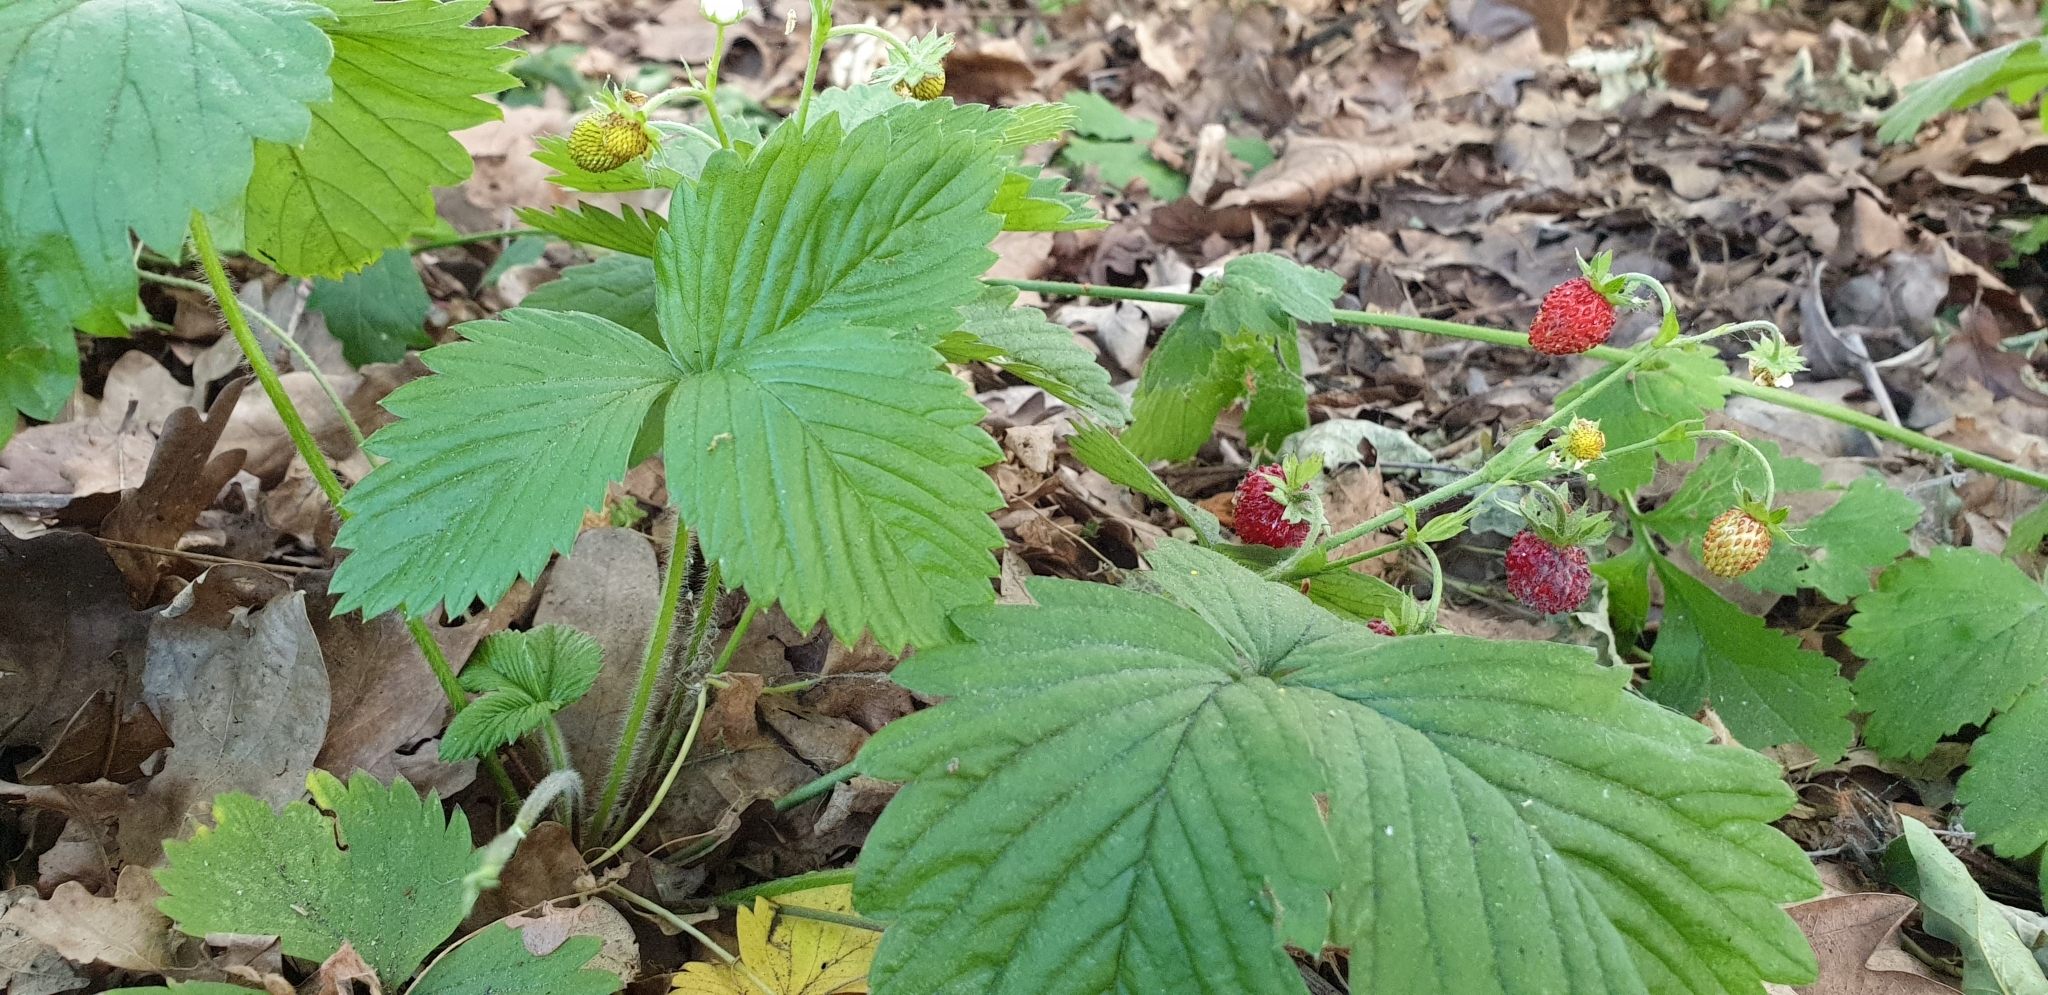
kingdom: Plantae
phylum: Tracheophyta
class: Magnoliopsida
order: Rosales
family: Rosaceae
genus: Fragaria
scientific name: Fragaria vesca
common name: Wild strawberry
